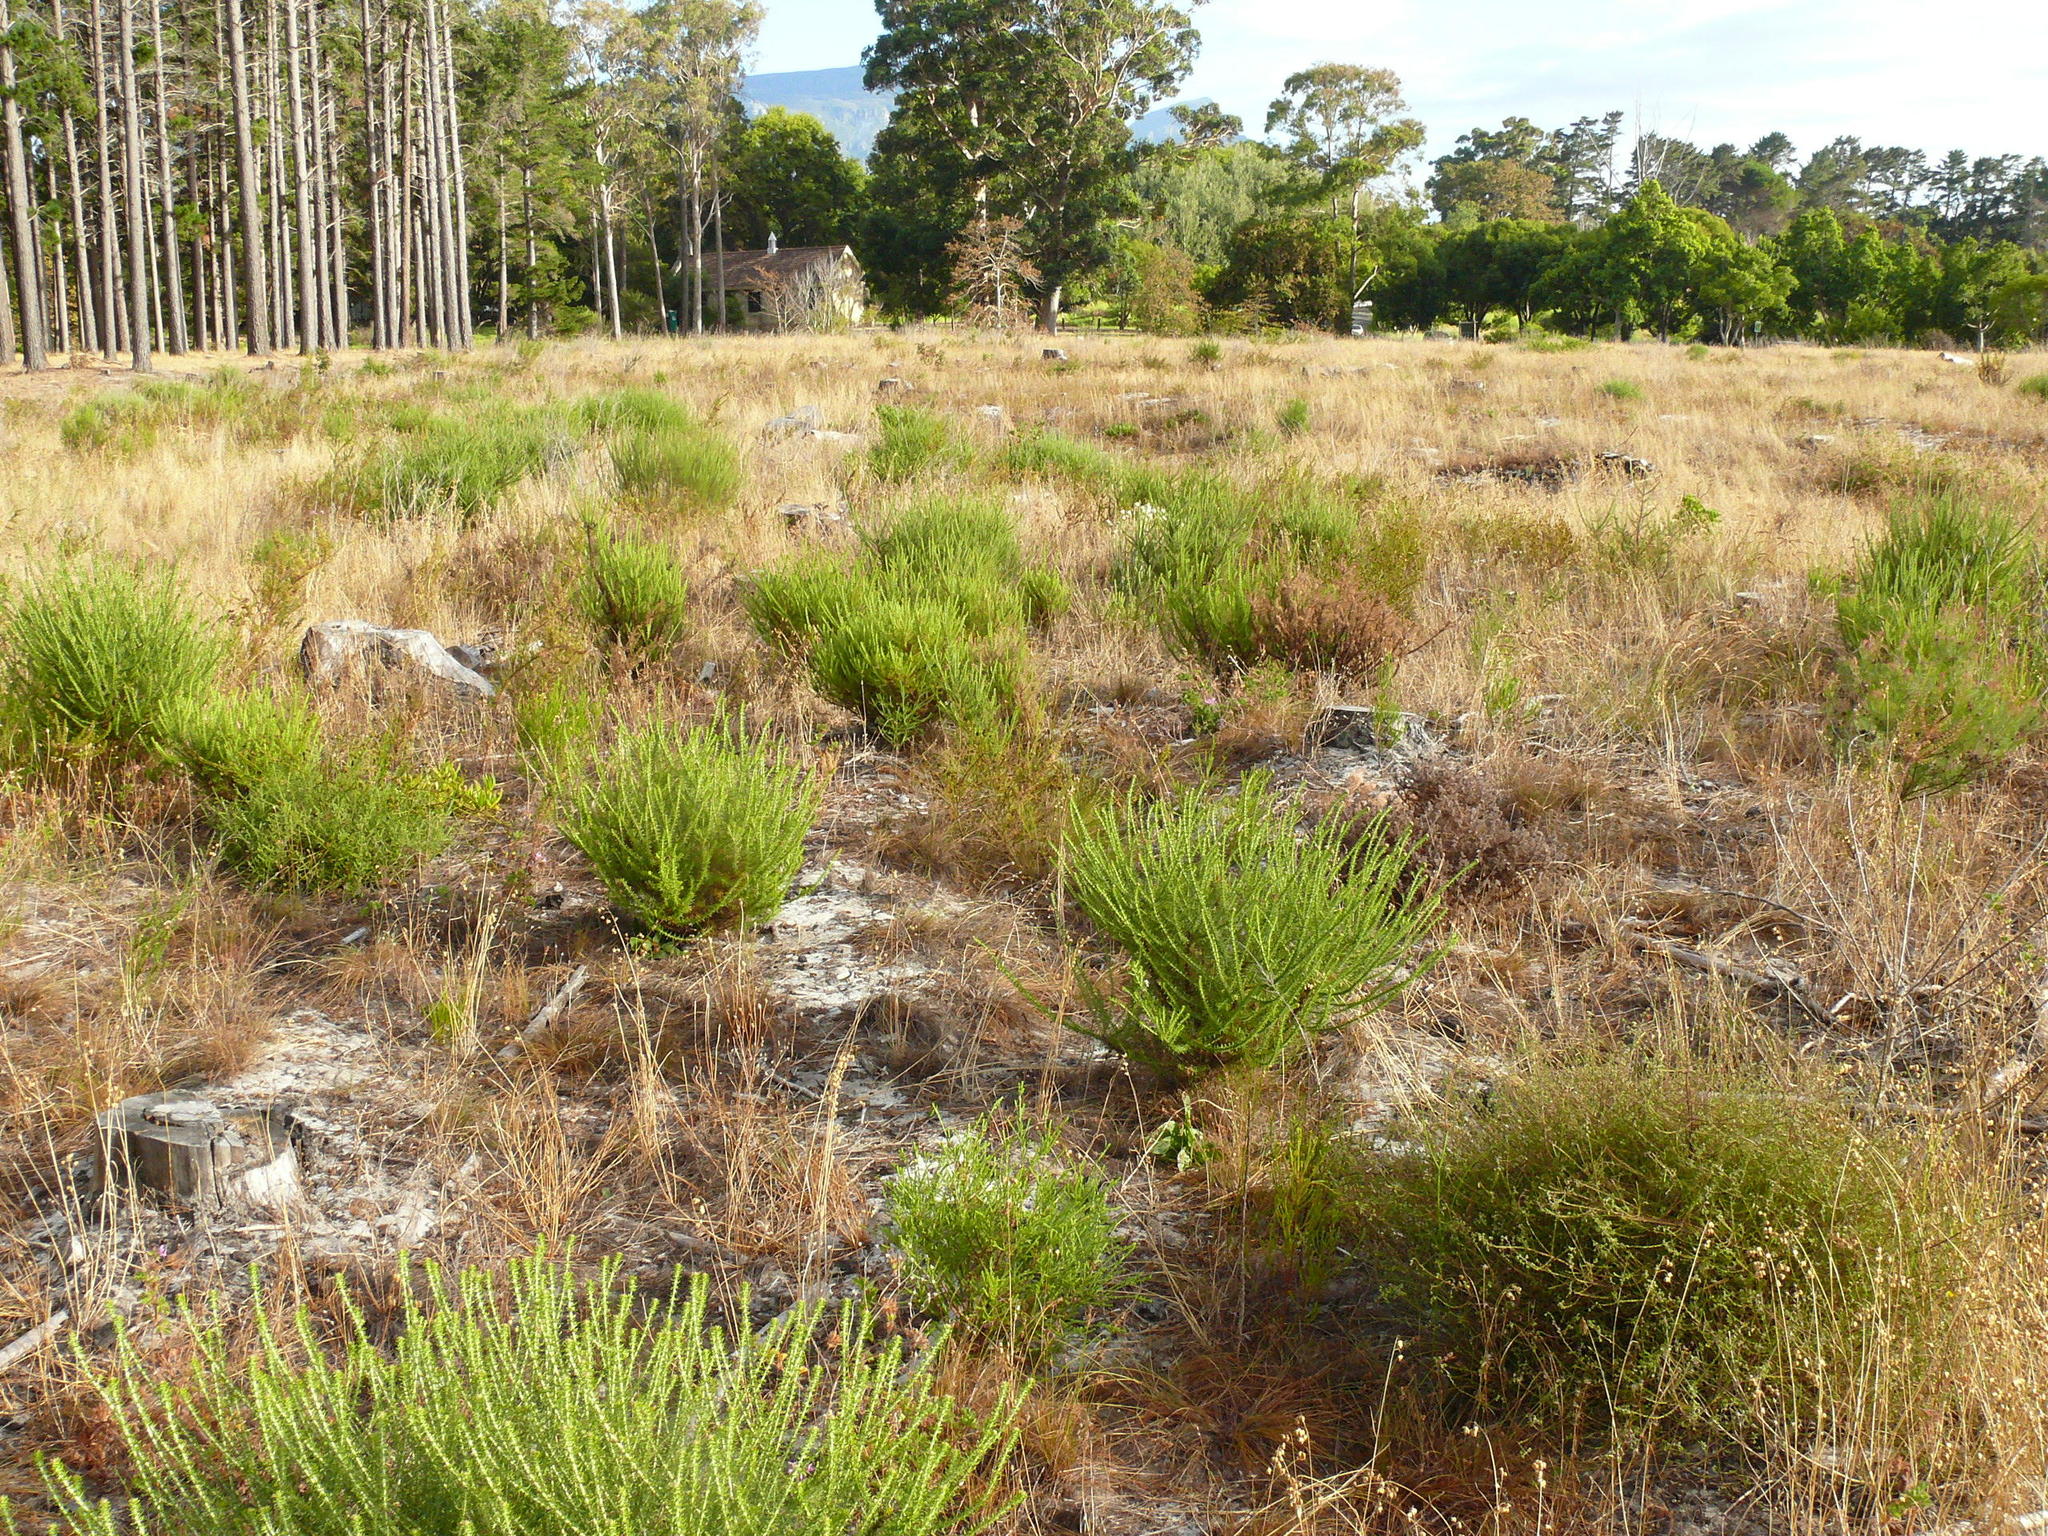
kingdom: Plantae
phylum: Tracheophyta
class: Magnoliopsida
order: Asterales
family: Asteraceae
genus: Metalasia
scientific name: Metalasia densa
